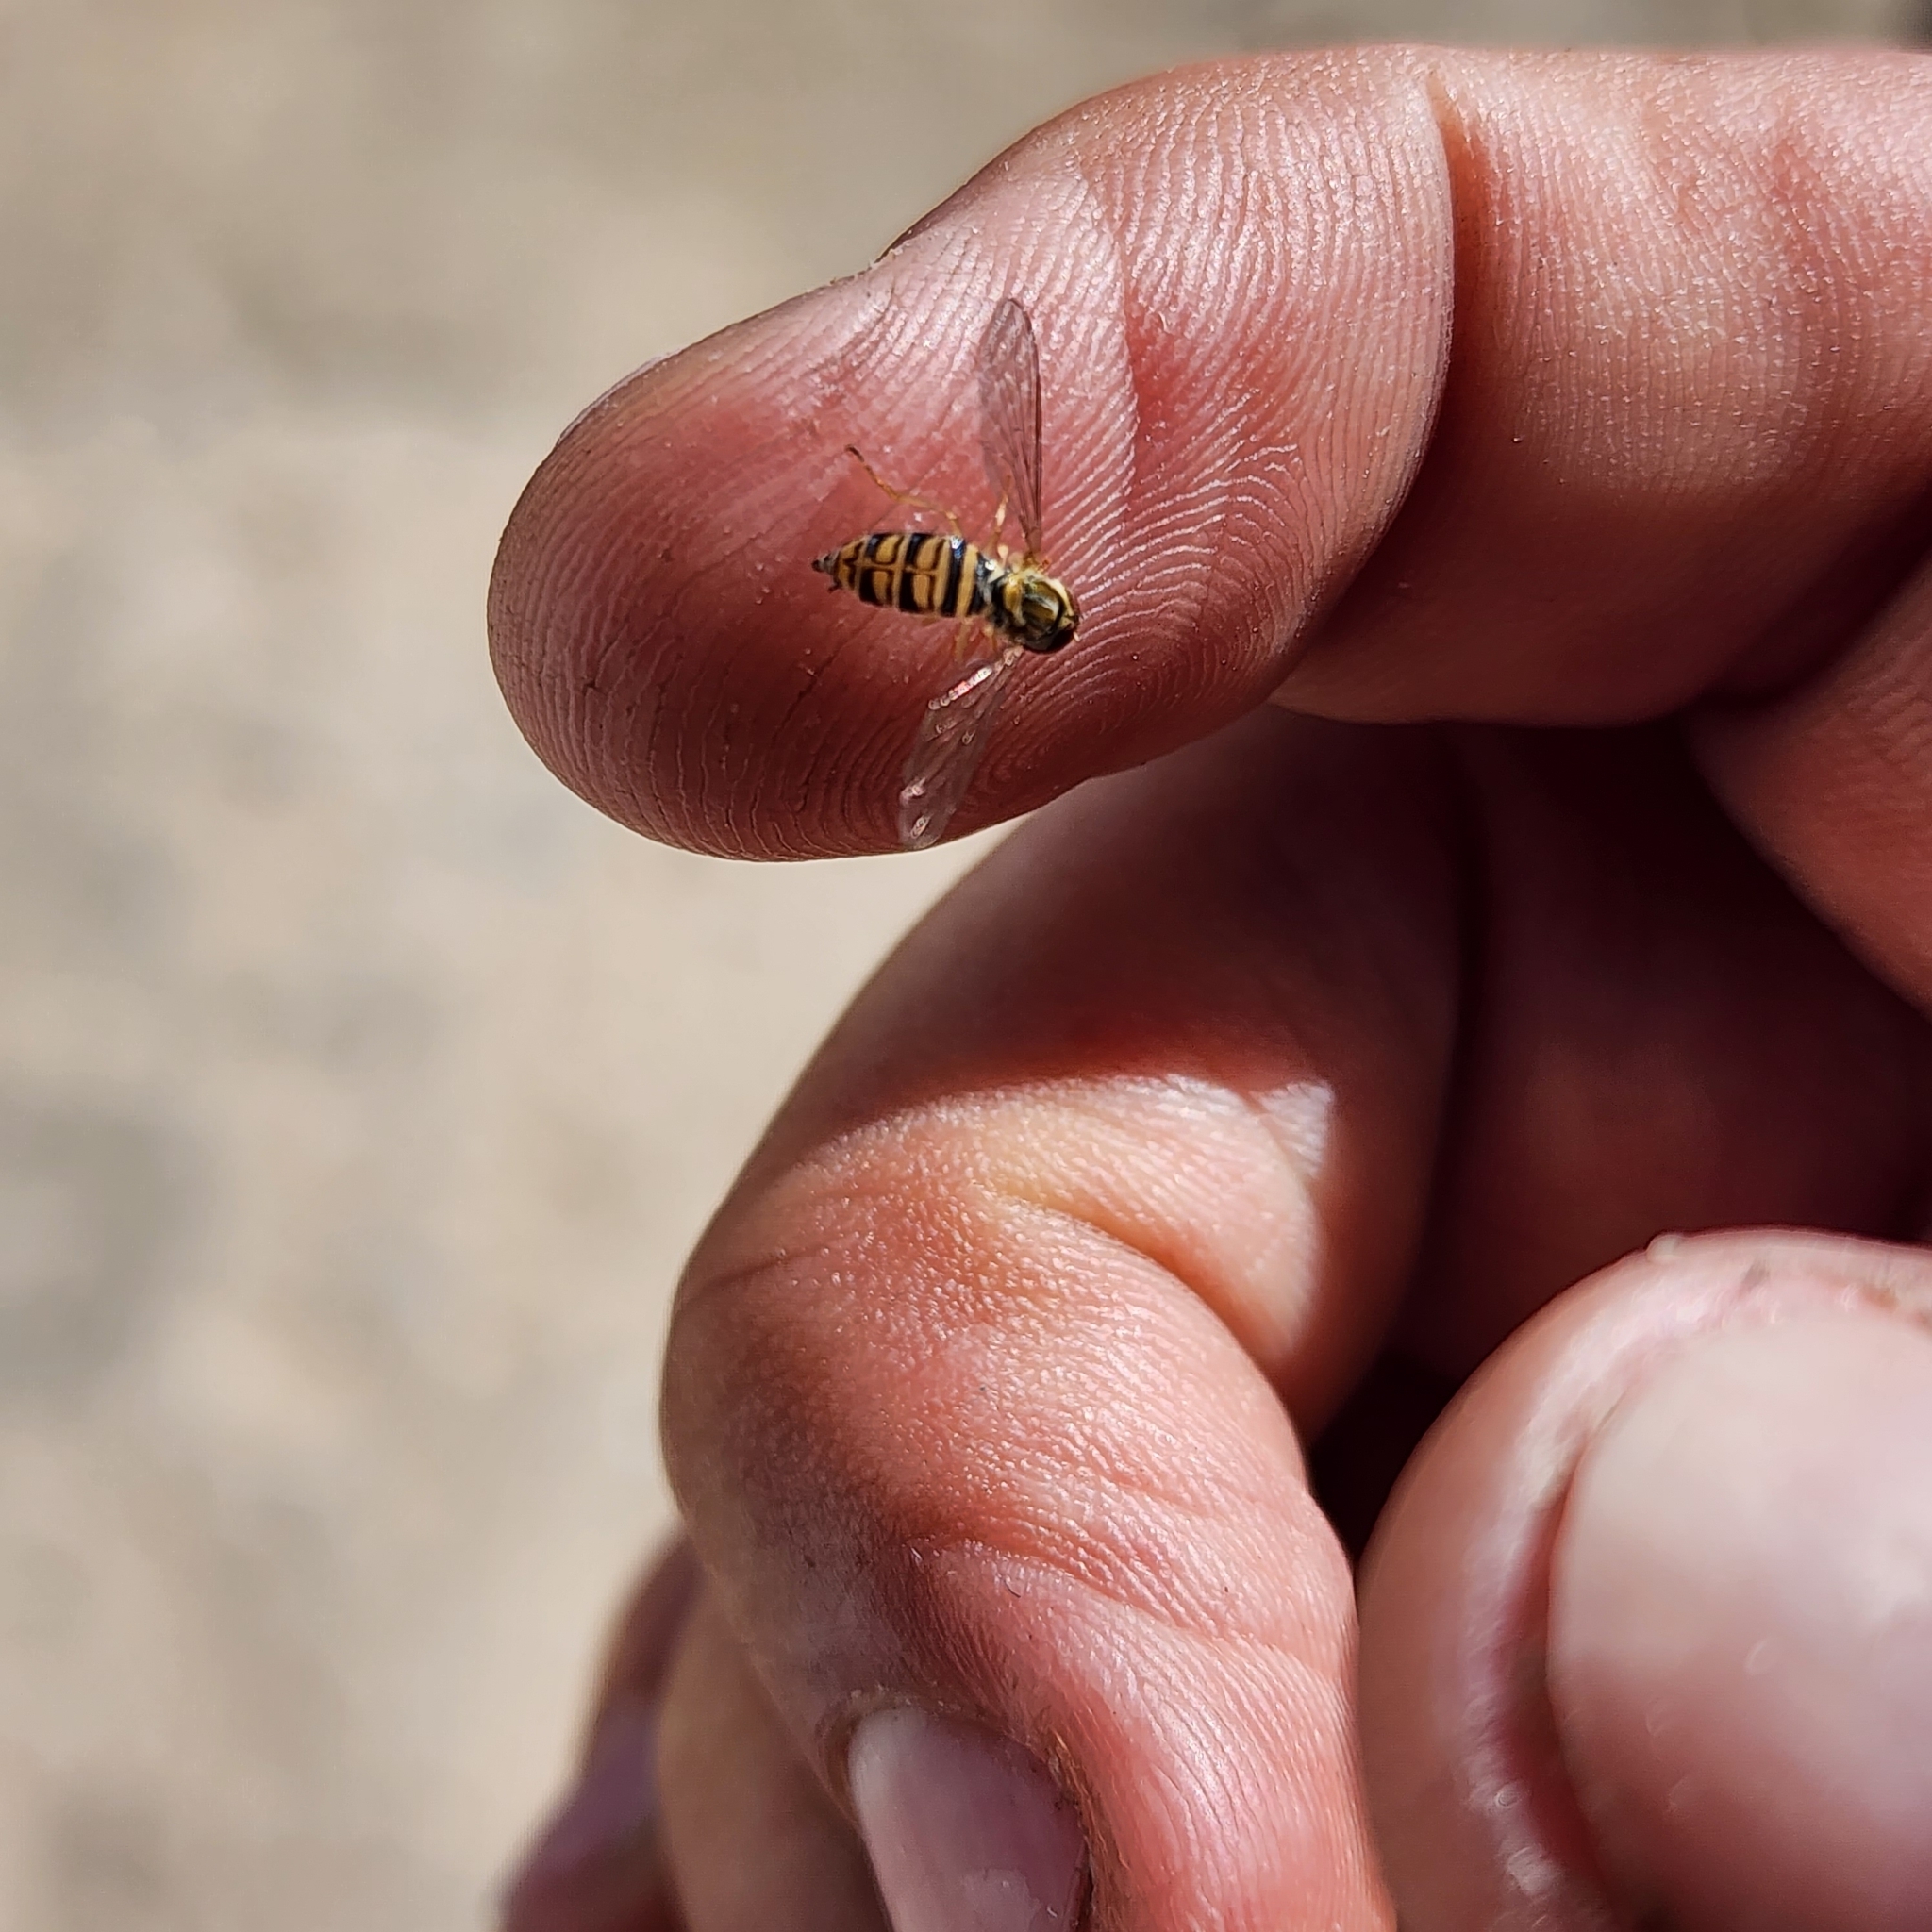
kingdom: Animalia
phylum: Arthropoda
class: Insecta
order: Diptera
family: Syrphidae
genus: Toxomerus
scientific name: Toxomerus politus
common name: Maize calligrapher
